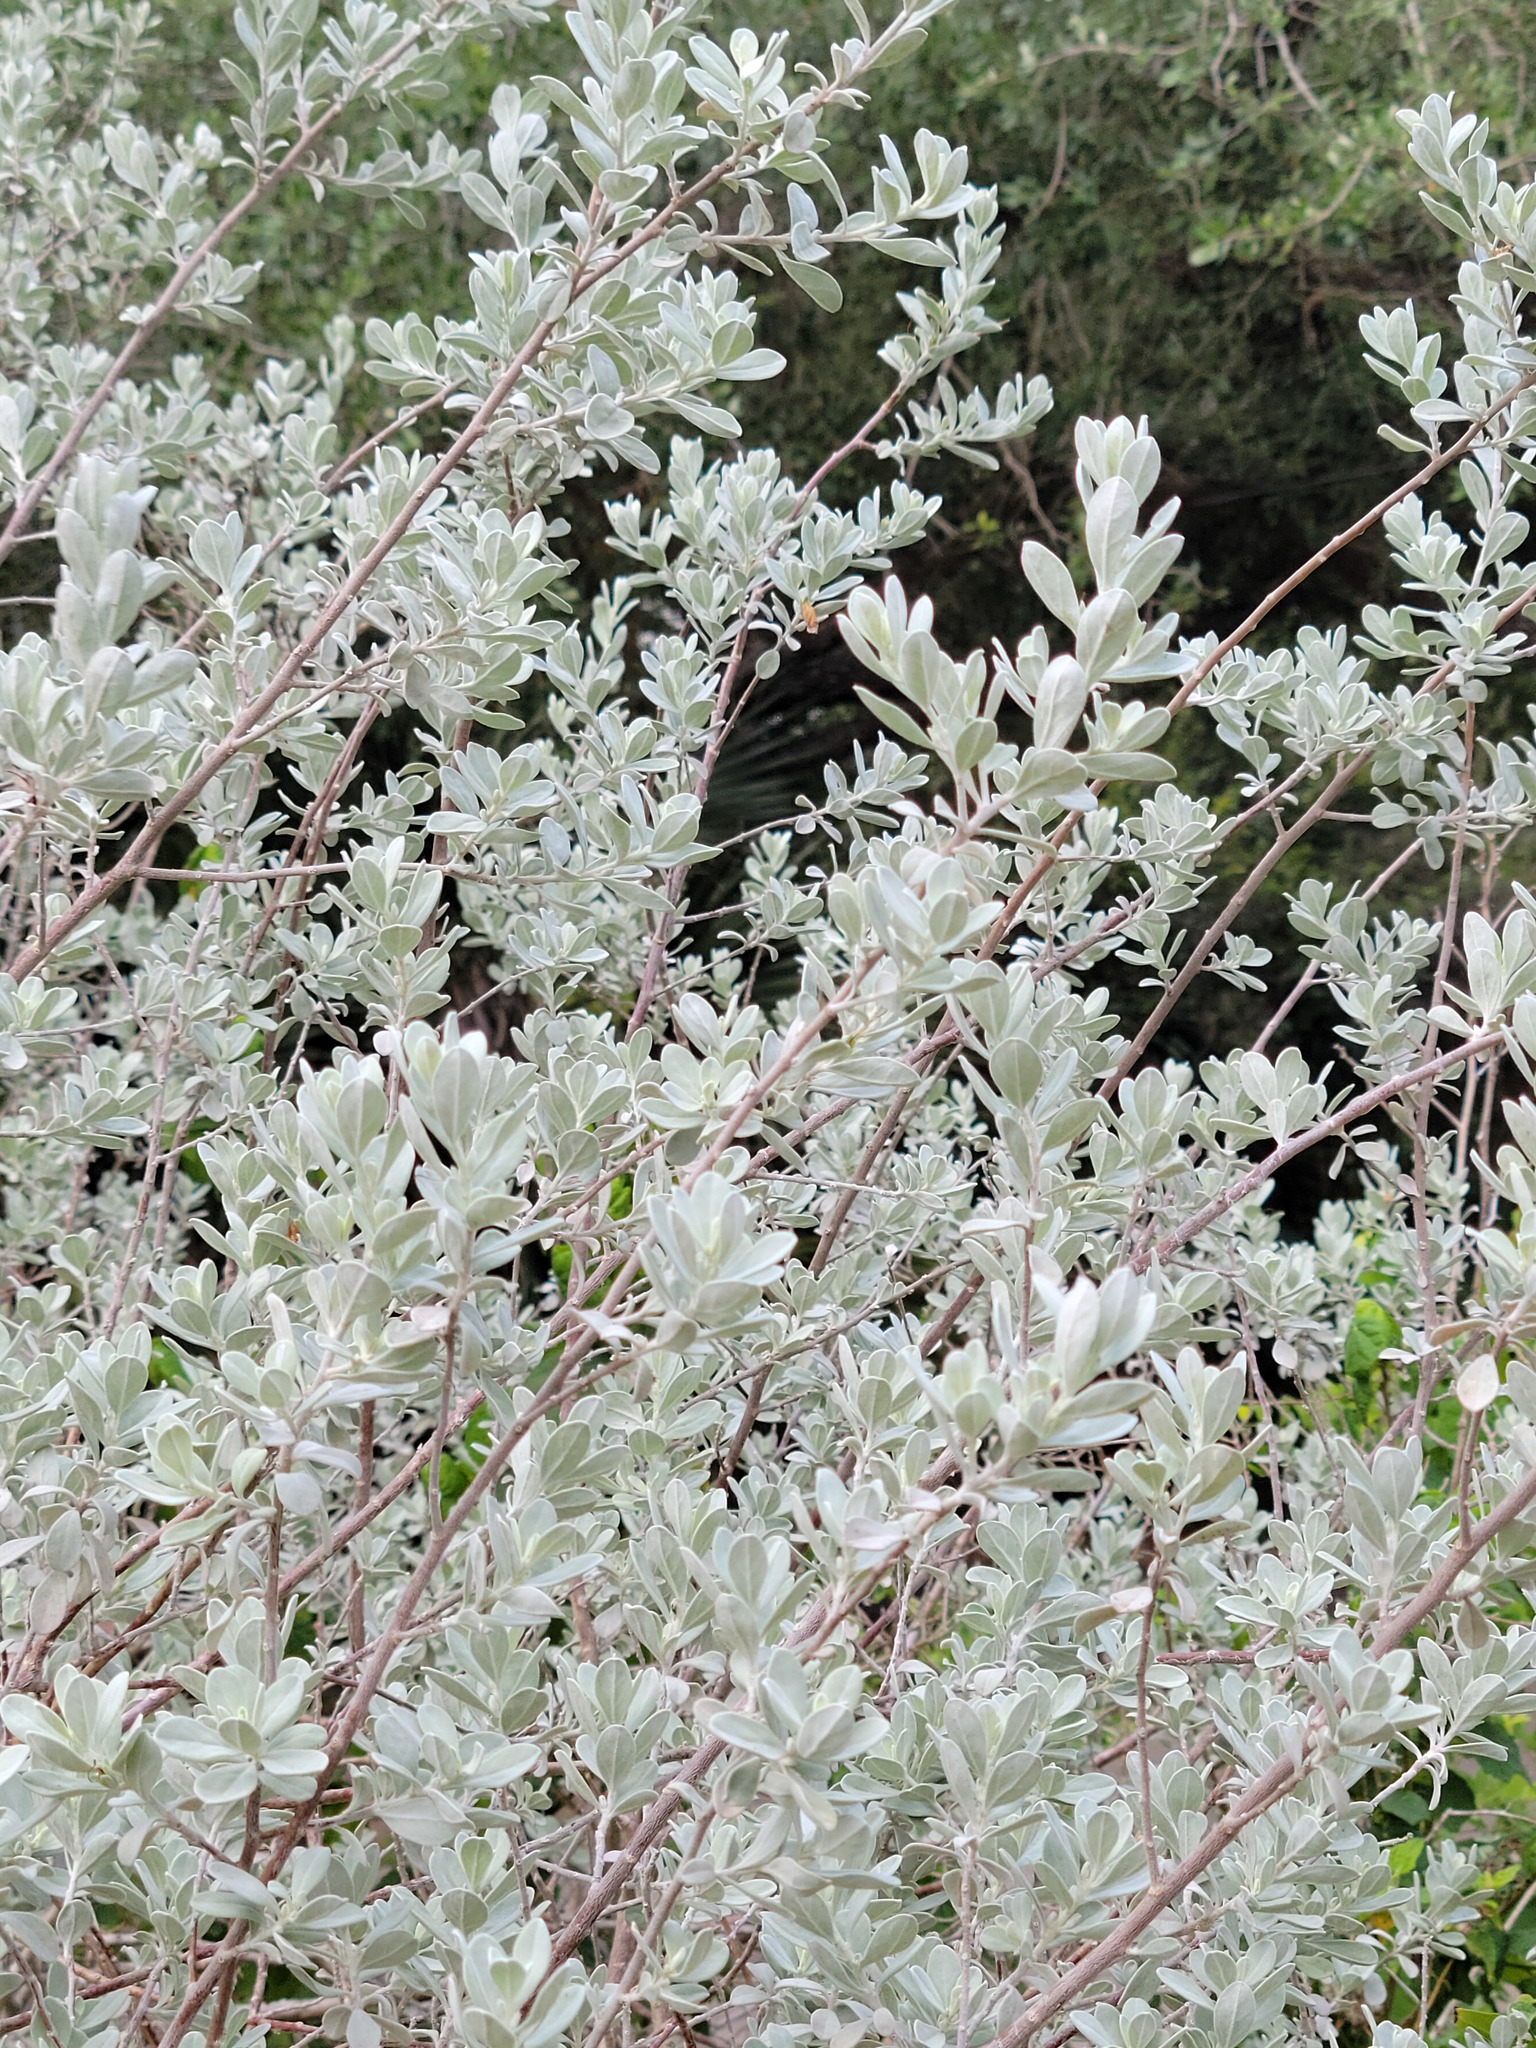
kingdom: Plantae
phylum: Tracheophyta
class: Magnoliopsida
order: Lamiales
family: Scrophulariaceae
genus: Leucophyllum
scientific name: Leucophyllum frutescens
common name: Texas silverleaf
